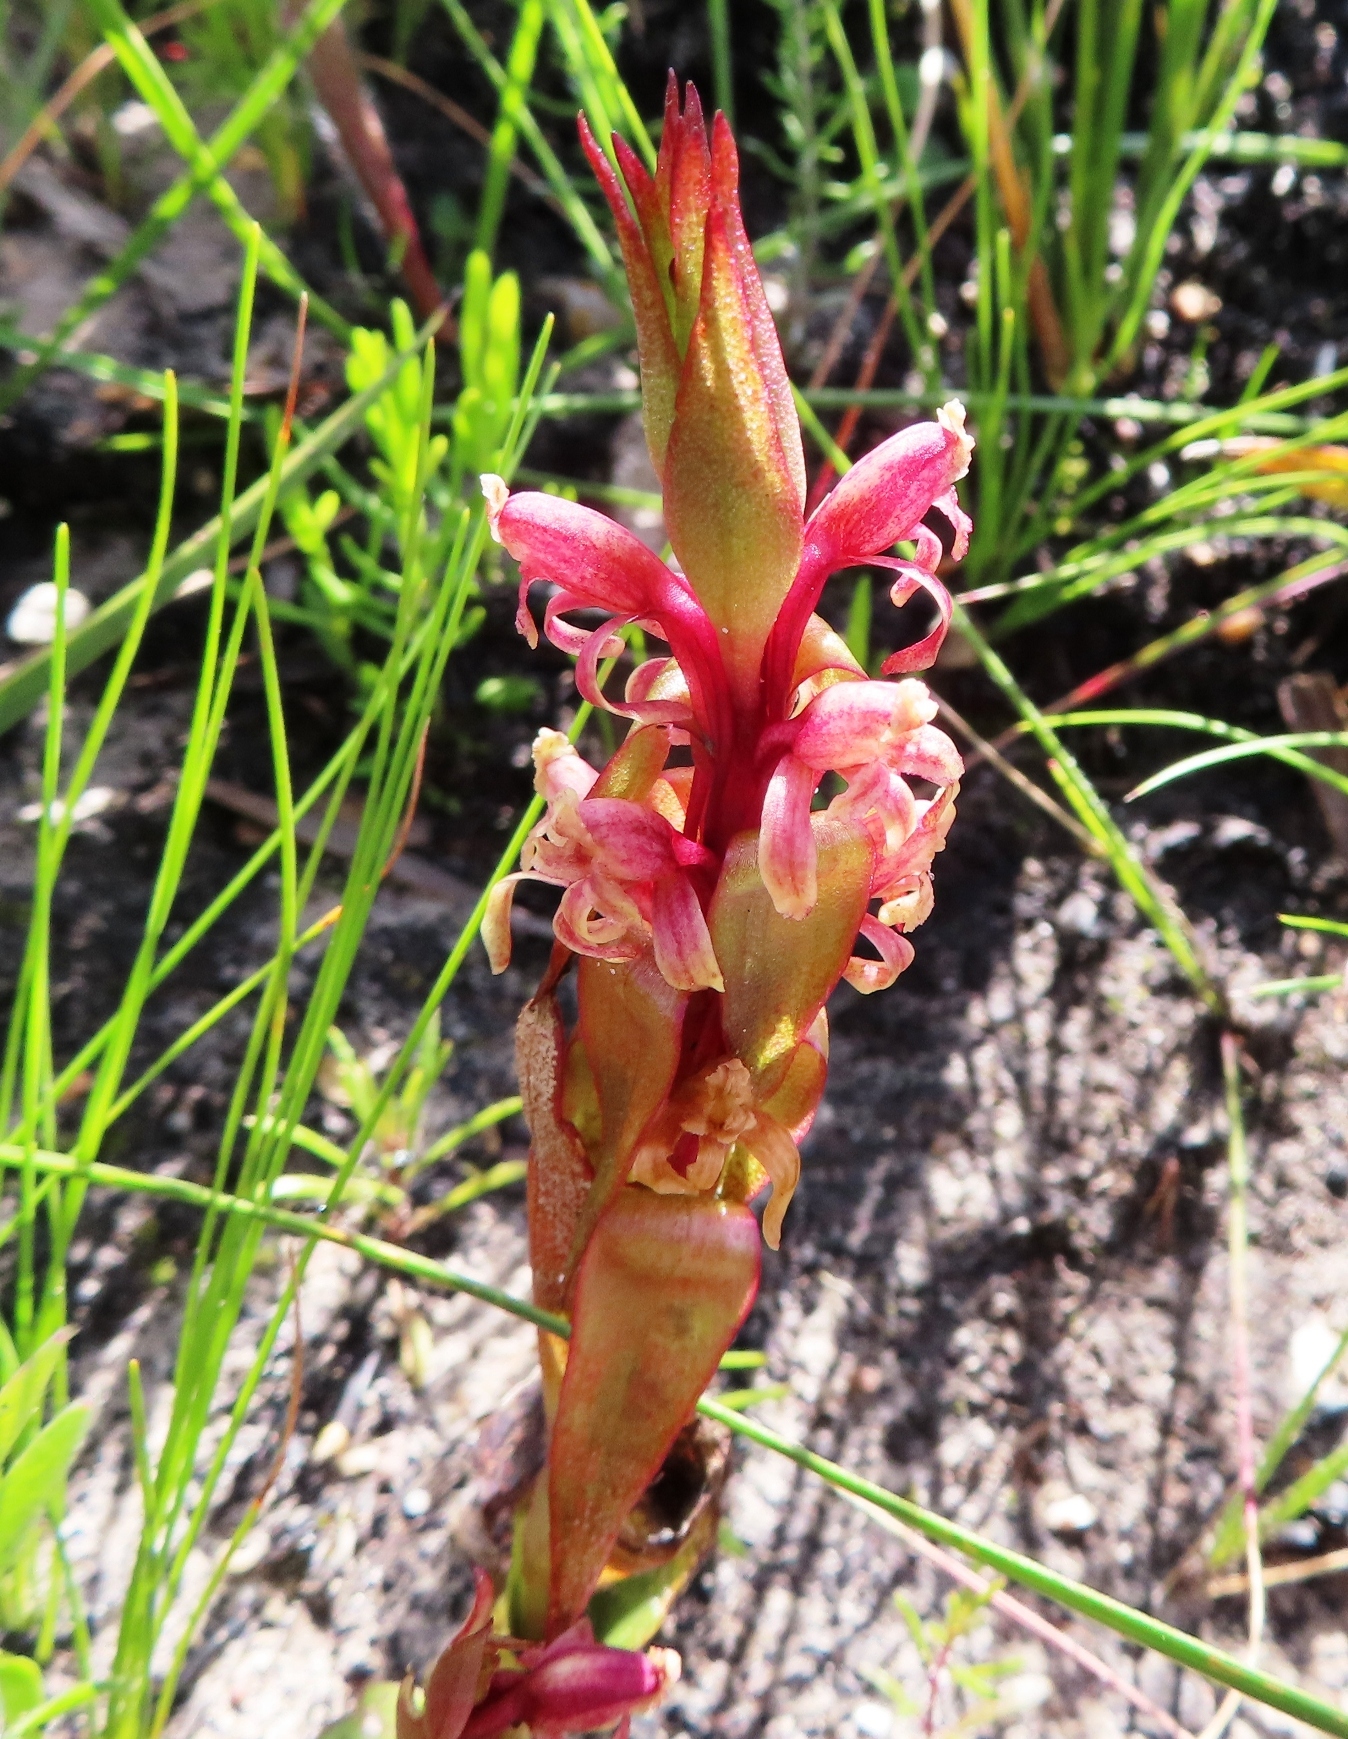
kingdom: Plantae
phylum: Tracheophyta
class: Liliopsida
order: Asparagales
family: Orchidaceae
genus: Satyrium
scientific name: Satyrium lupulinum
